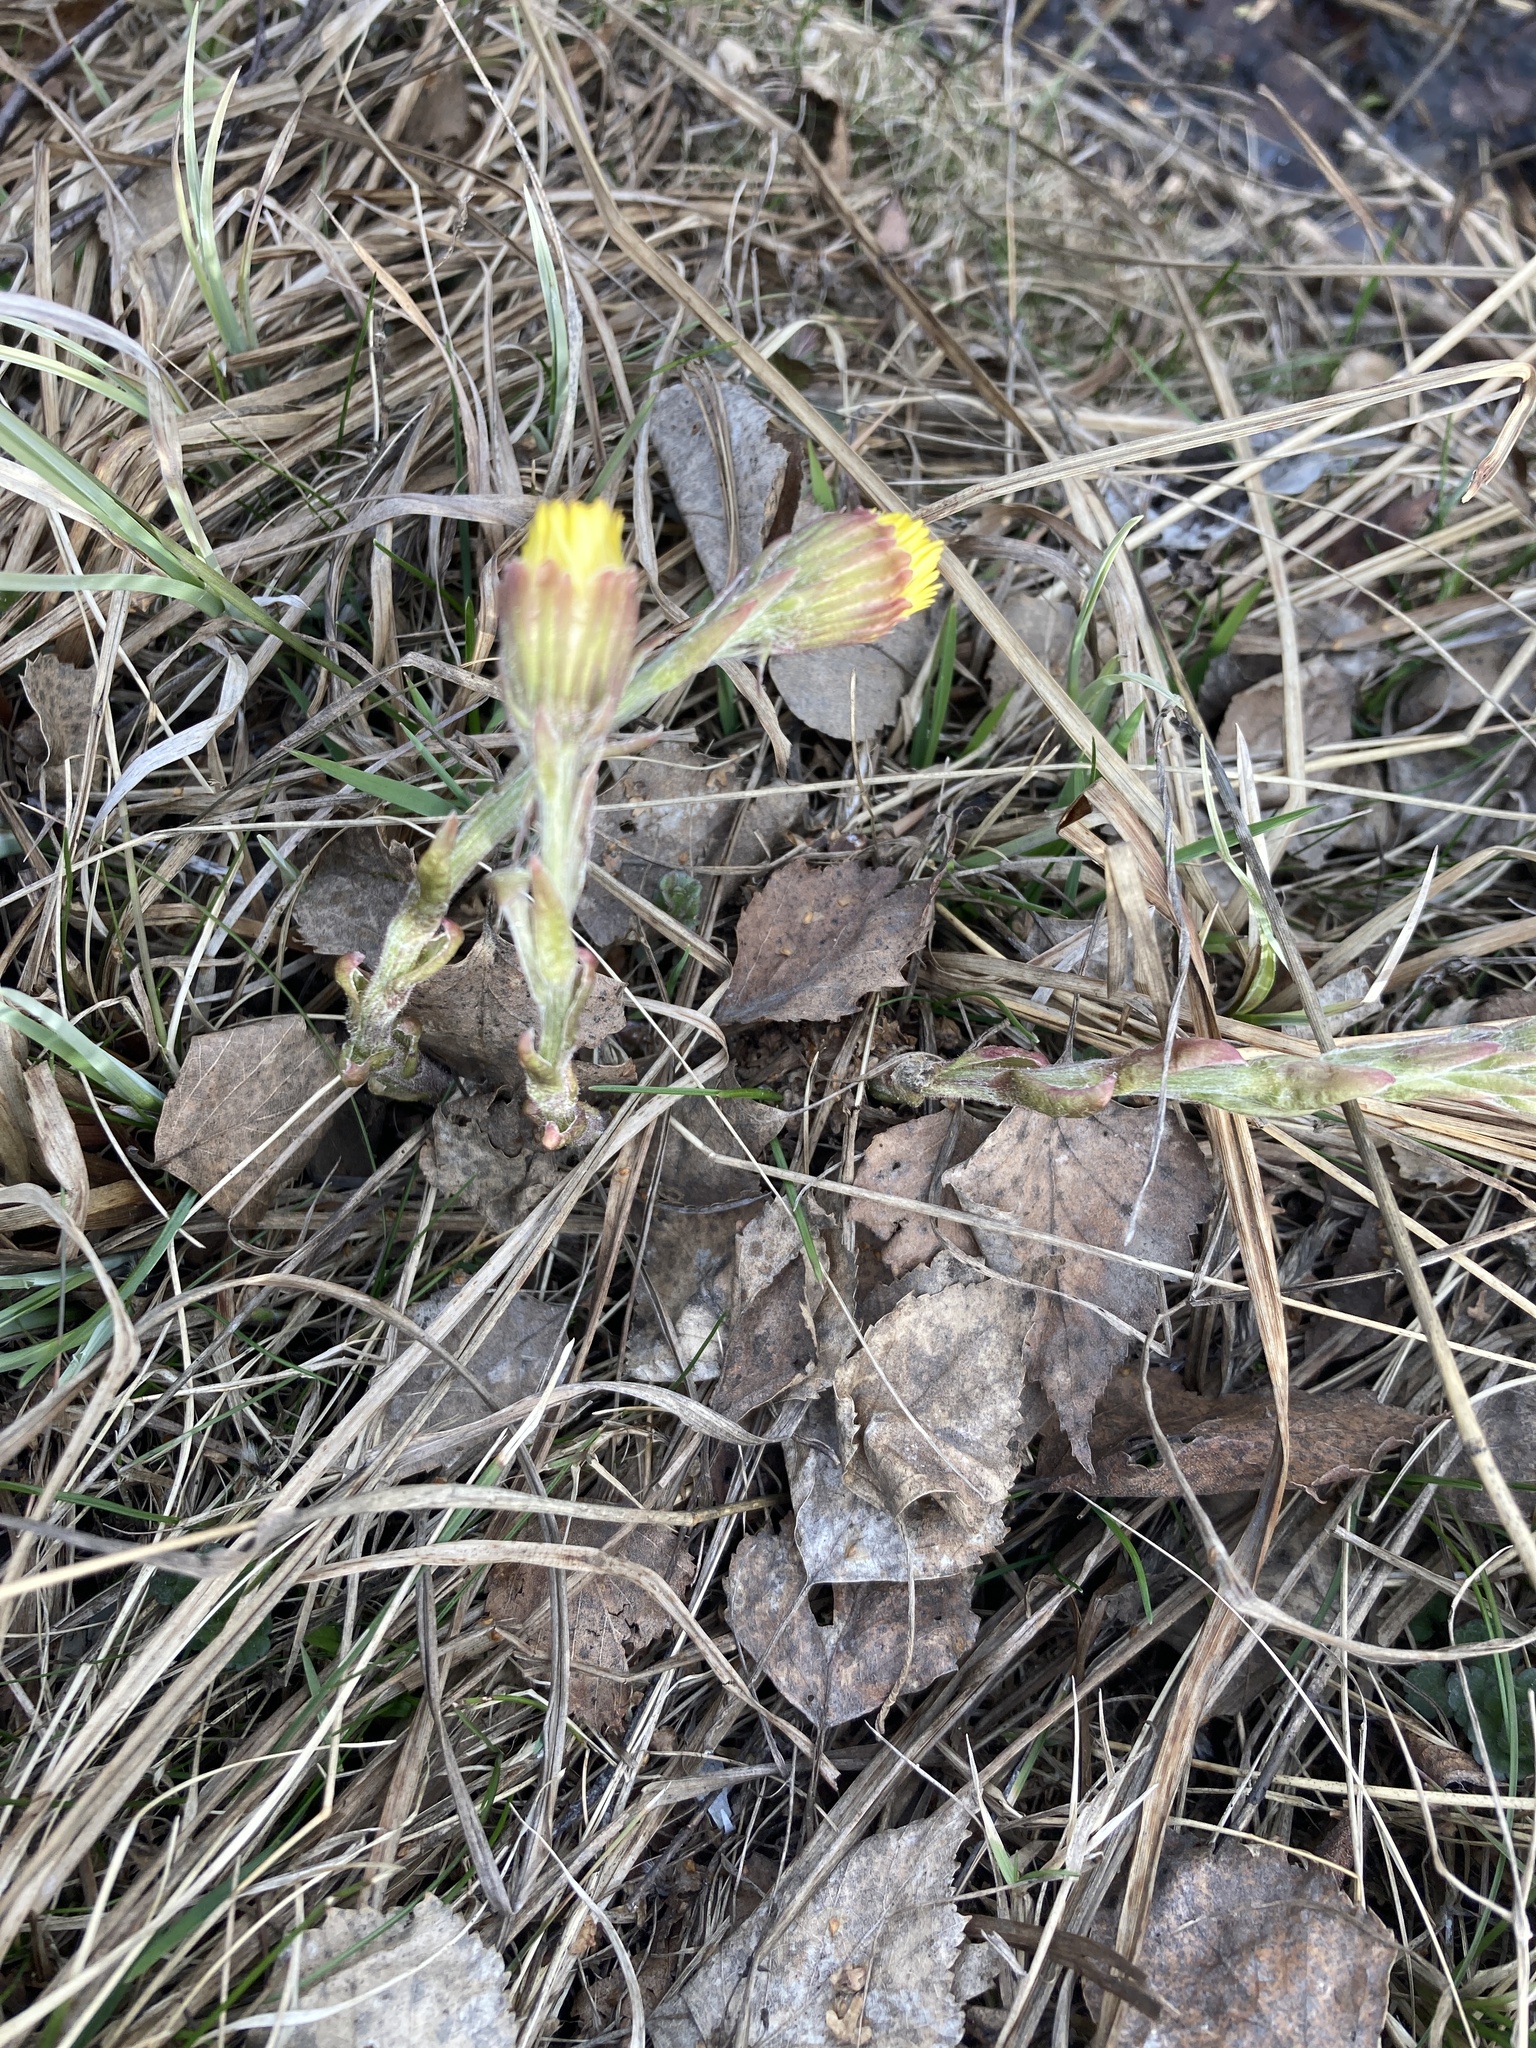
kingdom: Plantae
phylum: Tracheophyta
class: Magnoliopsida
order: Asterales
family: Asteraceae
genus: Tussilago
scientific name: Tussilago farfara
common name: Coltsfoot
